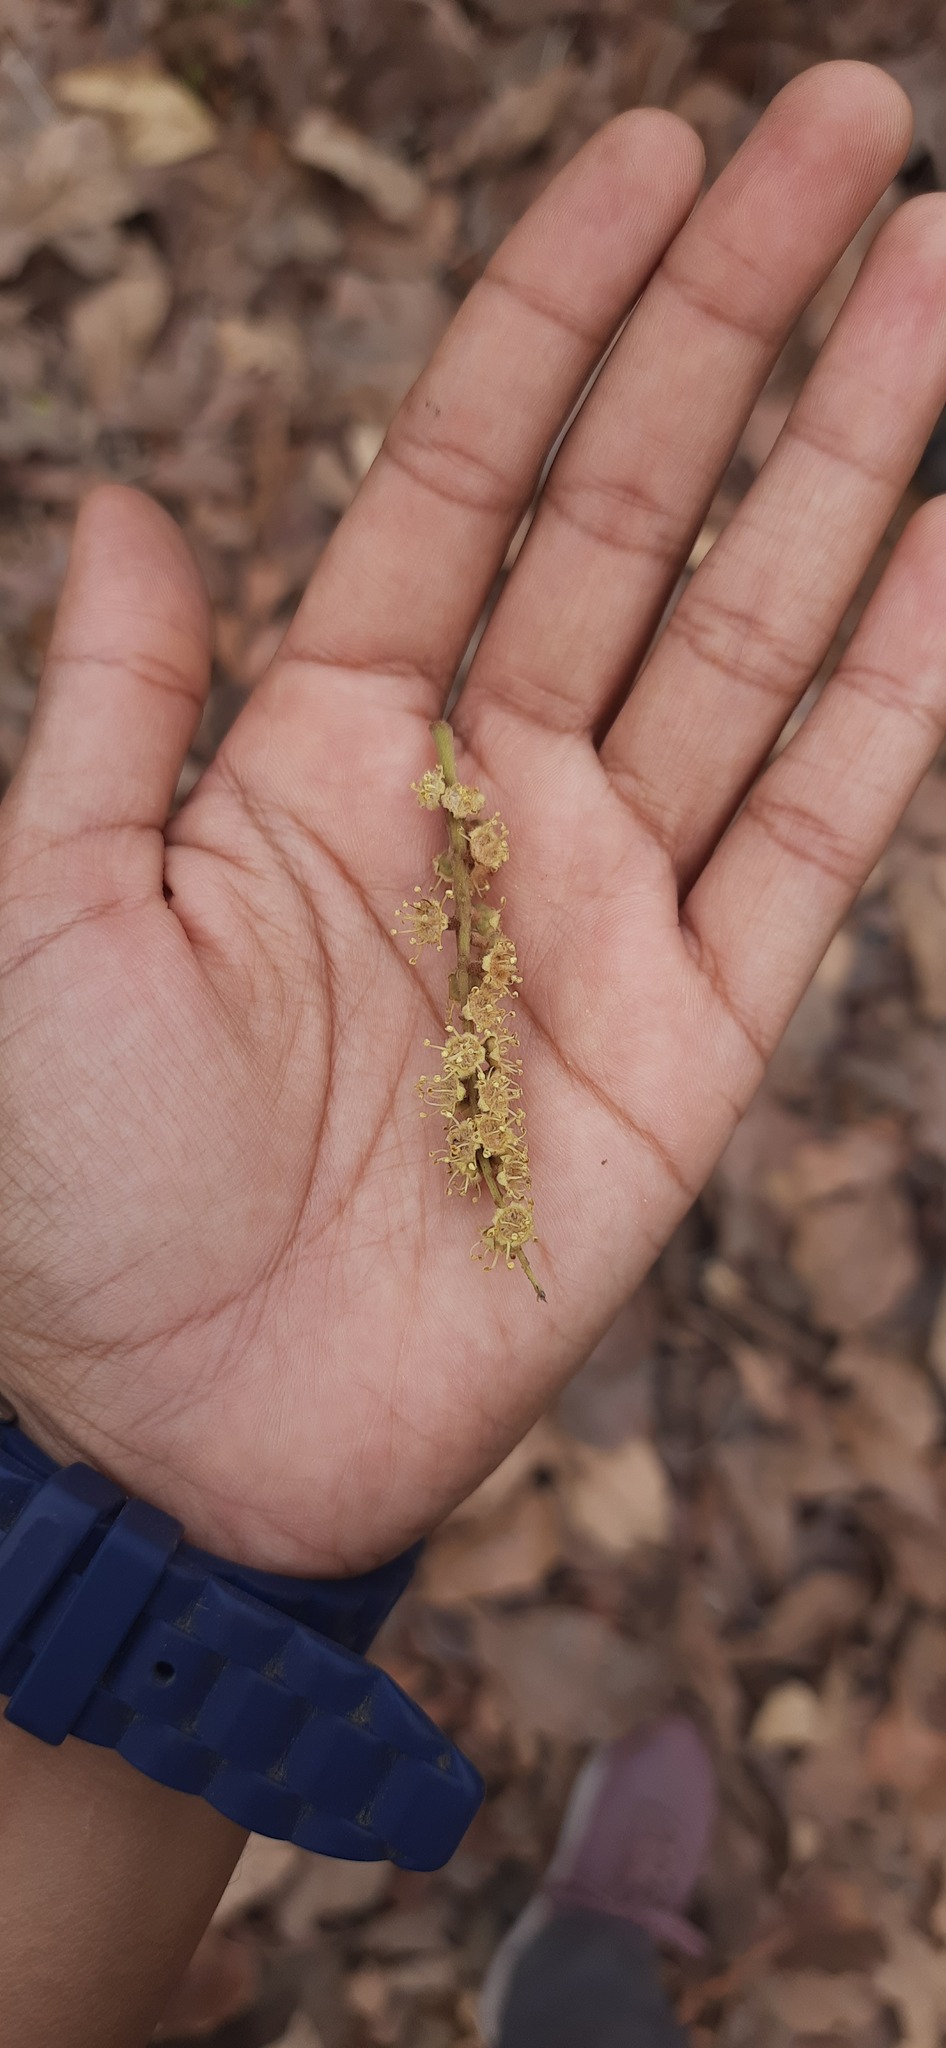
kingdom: Plantae
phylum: Tracheophyta
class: Magnoliopsida
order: Myrtales
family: Combretaceae
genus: Terminalia
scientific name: Terminalia bellirica
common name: Beleric myrobalan
